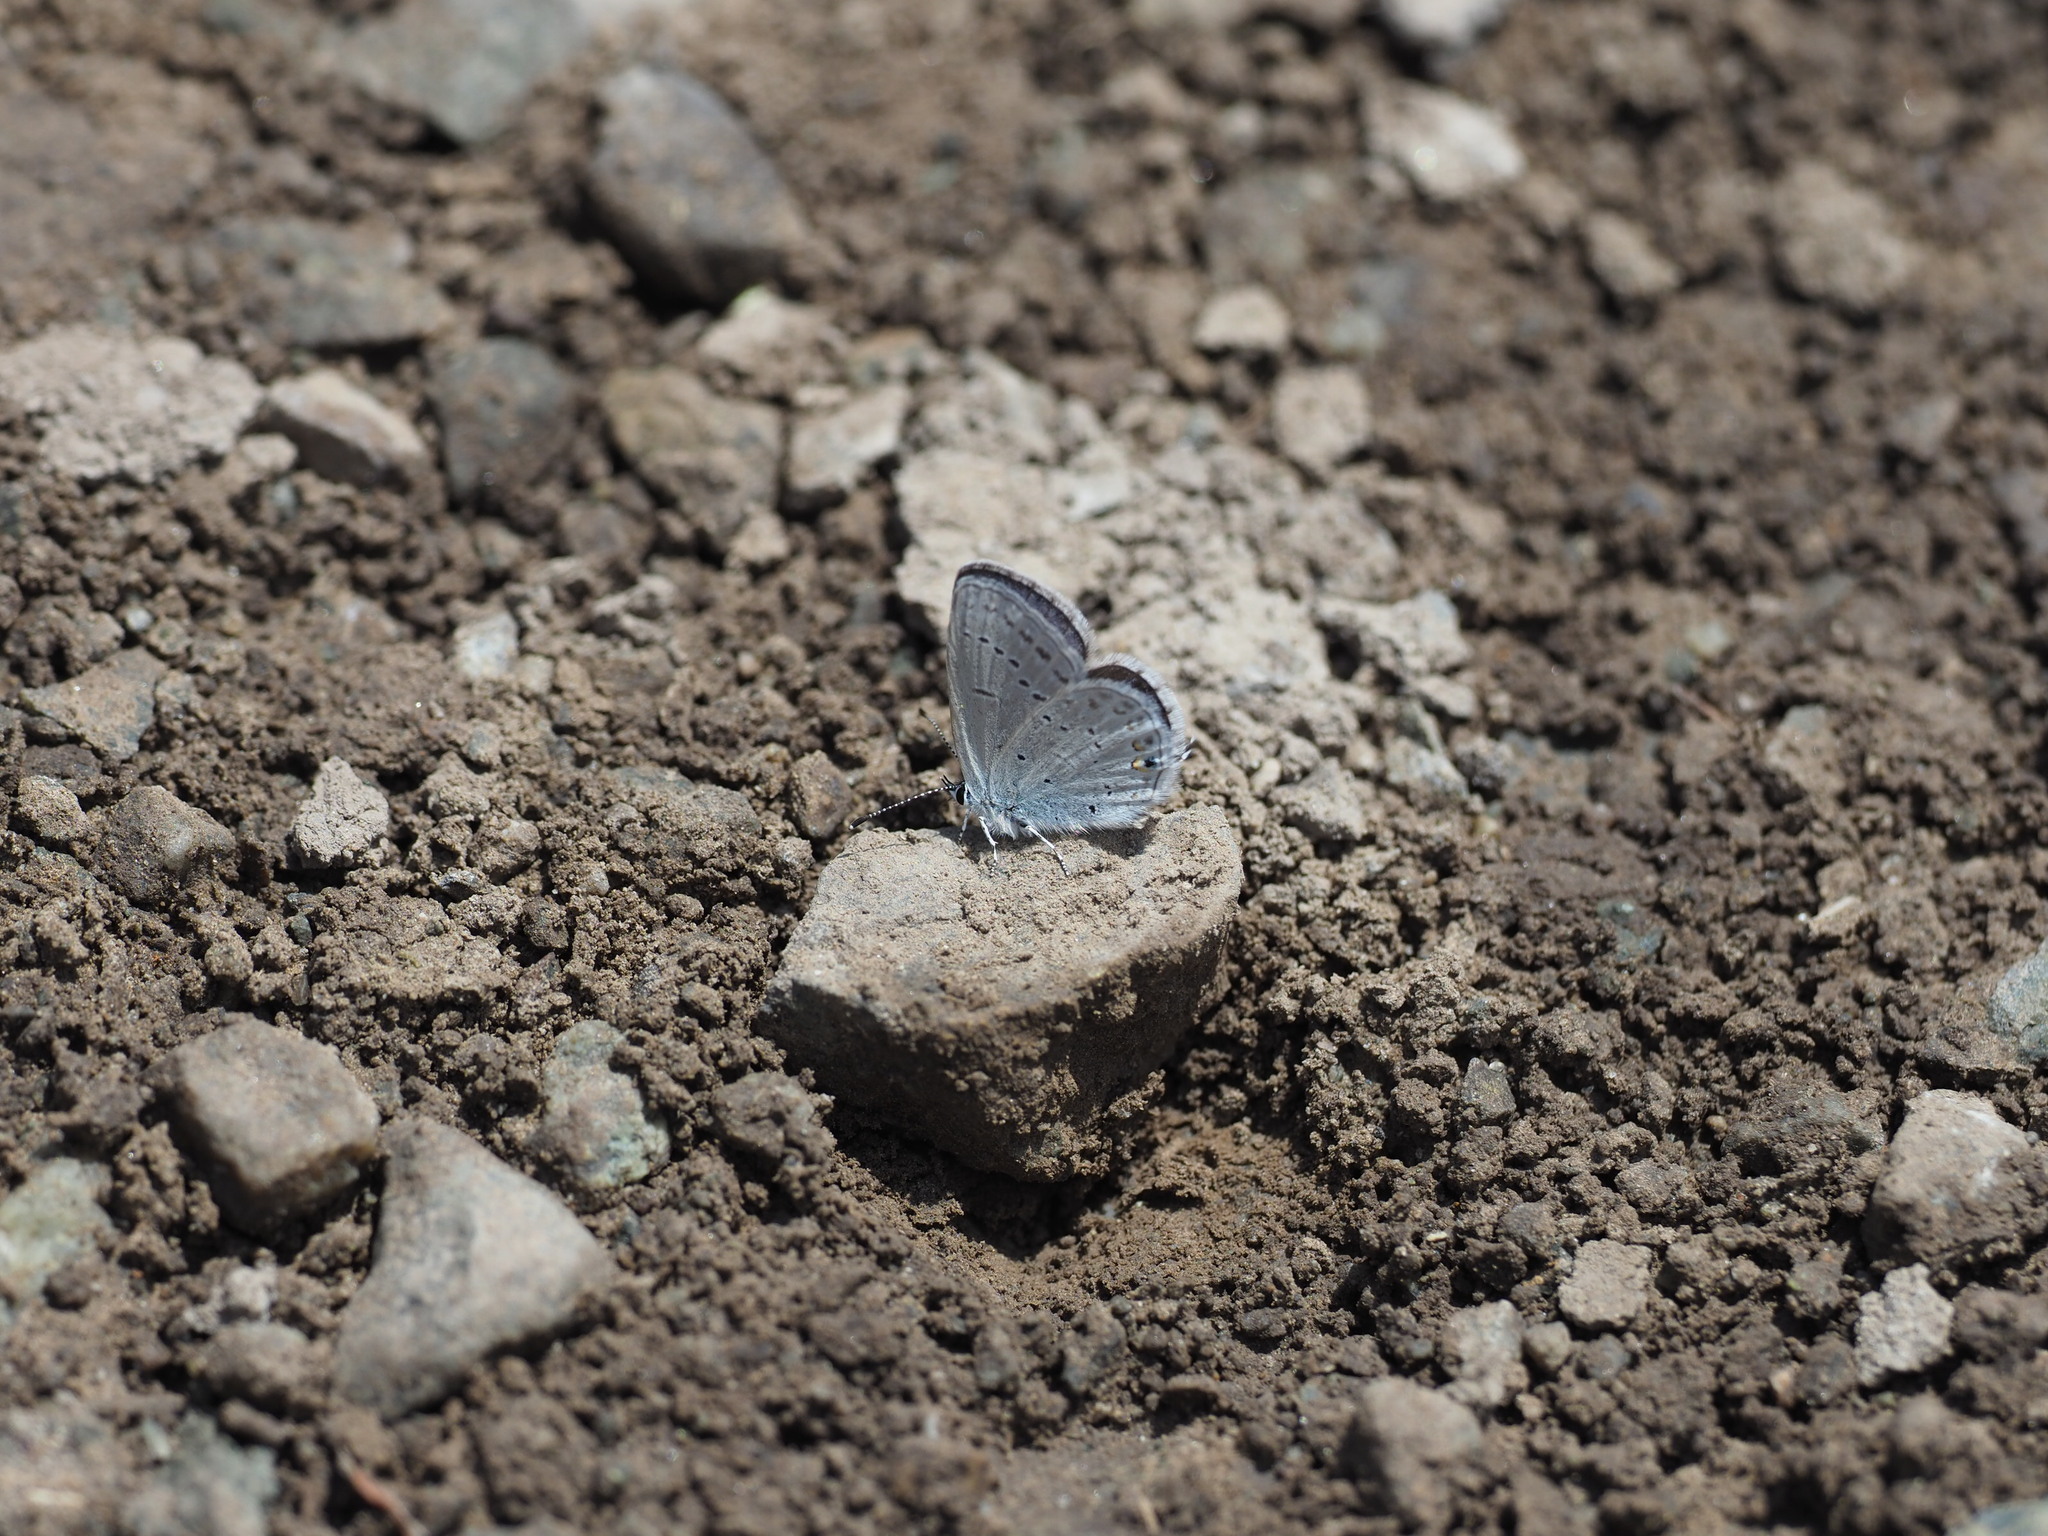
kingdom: Animalia
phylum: Arthropoda
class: Insecta
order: Lepidoptera
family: Lycaenidae
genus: Elkalyce
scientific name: Elkalyce amyntula
